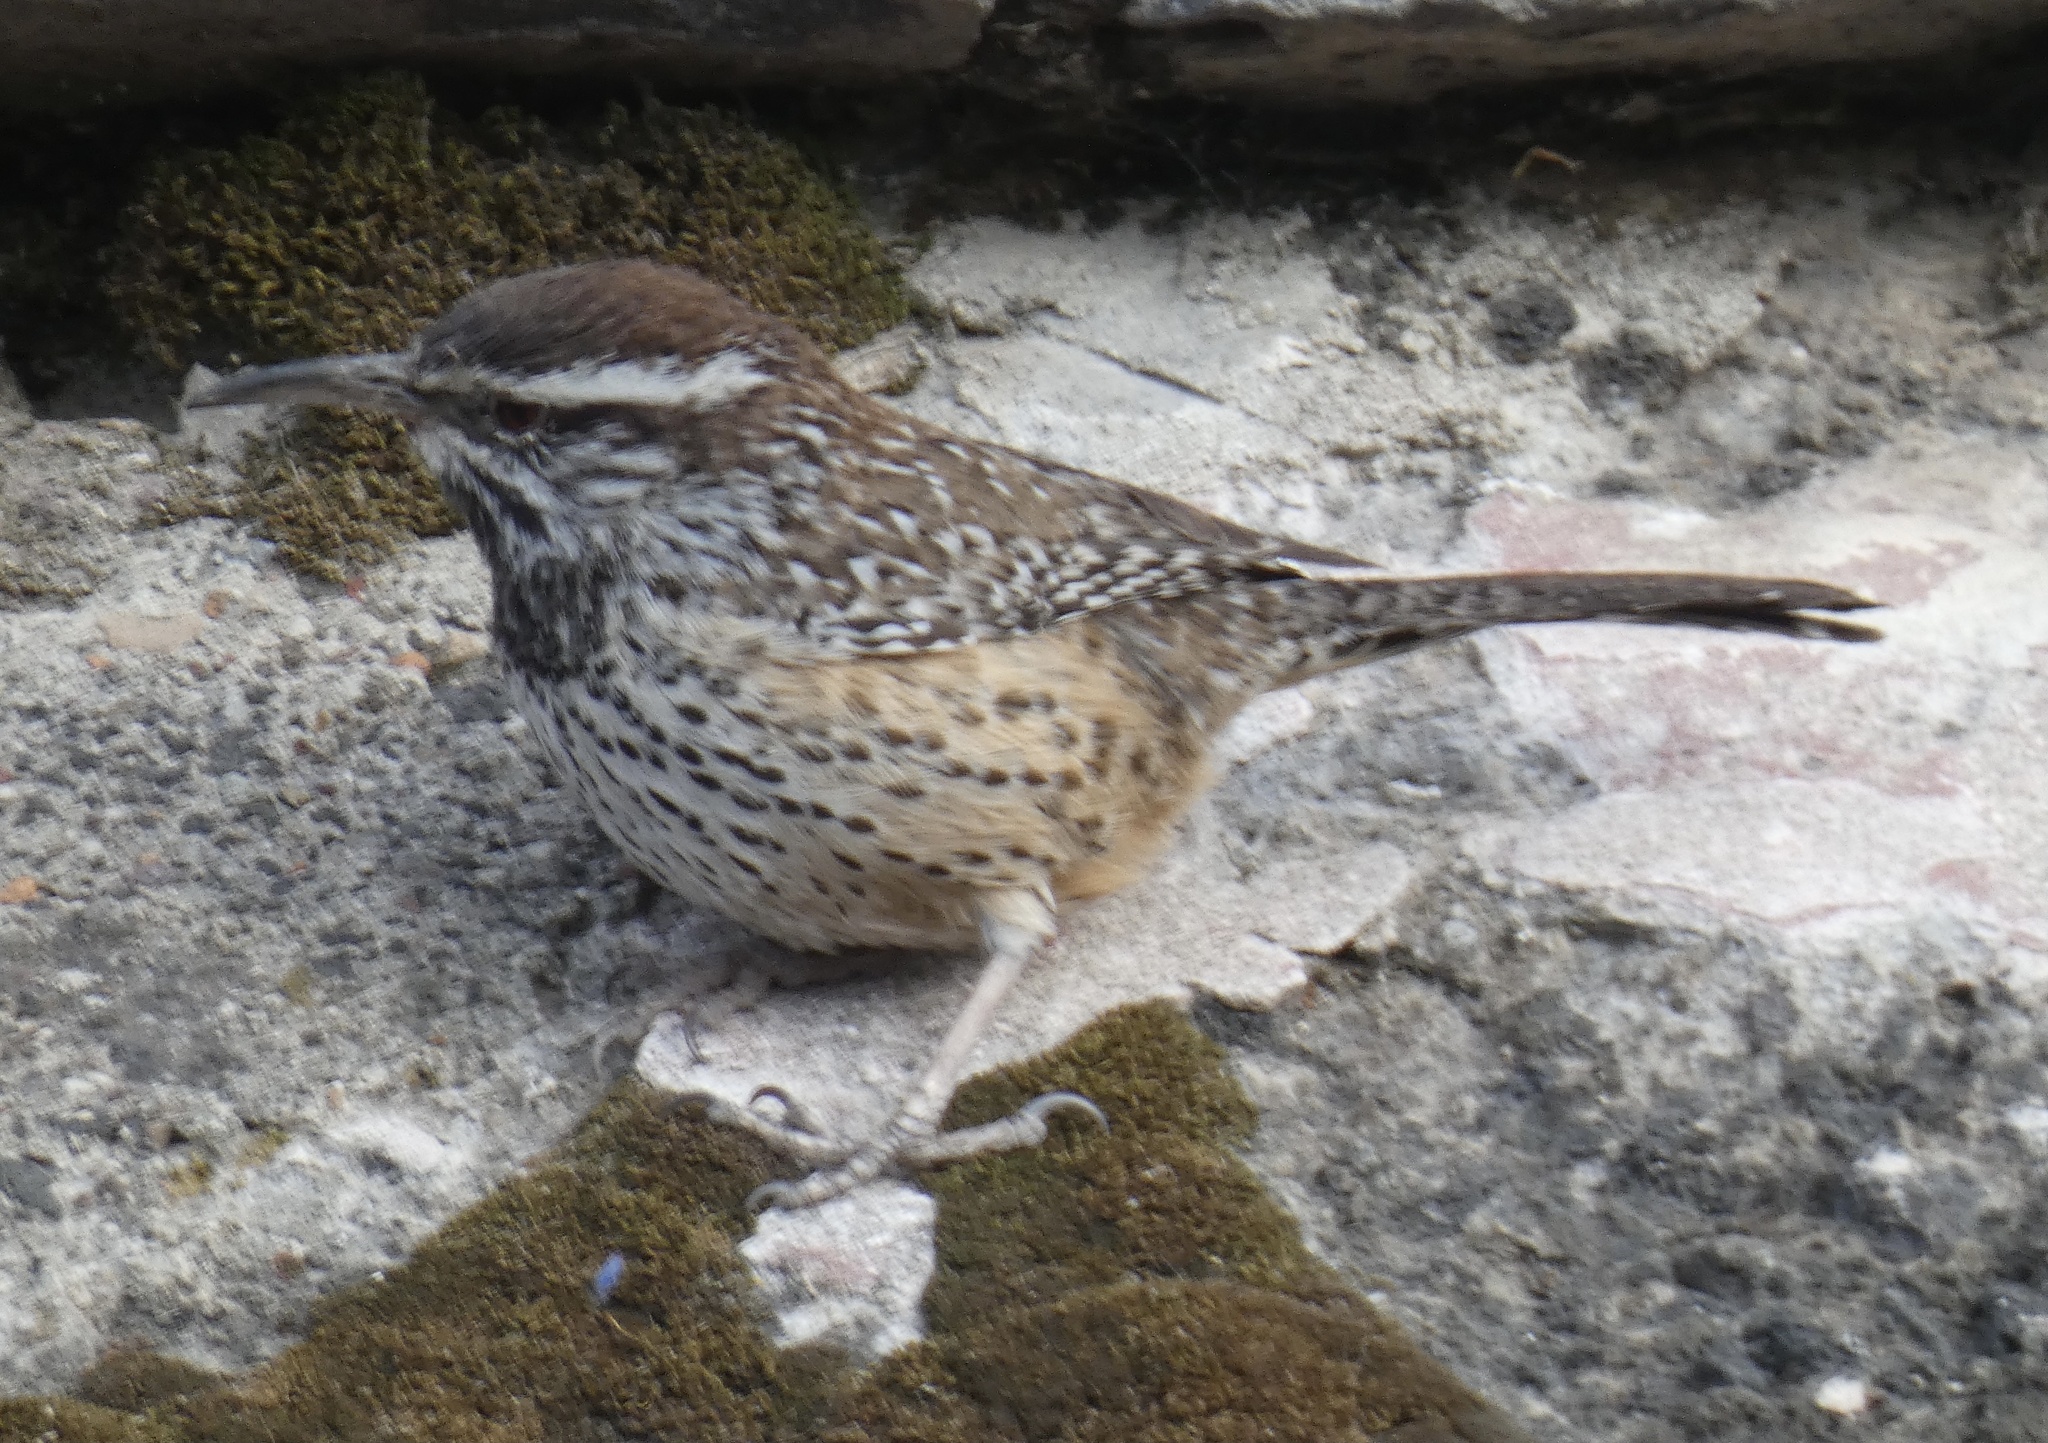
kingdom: Animalia
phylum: Chordata
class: Aves
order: Passeriformes
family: Troglodytidae
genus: Campylorhynchus
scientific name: Campylorhynchus brunneicapillus
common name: Cactus wren
